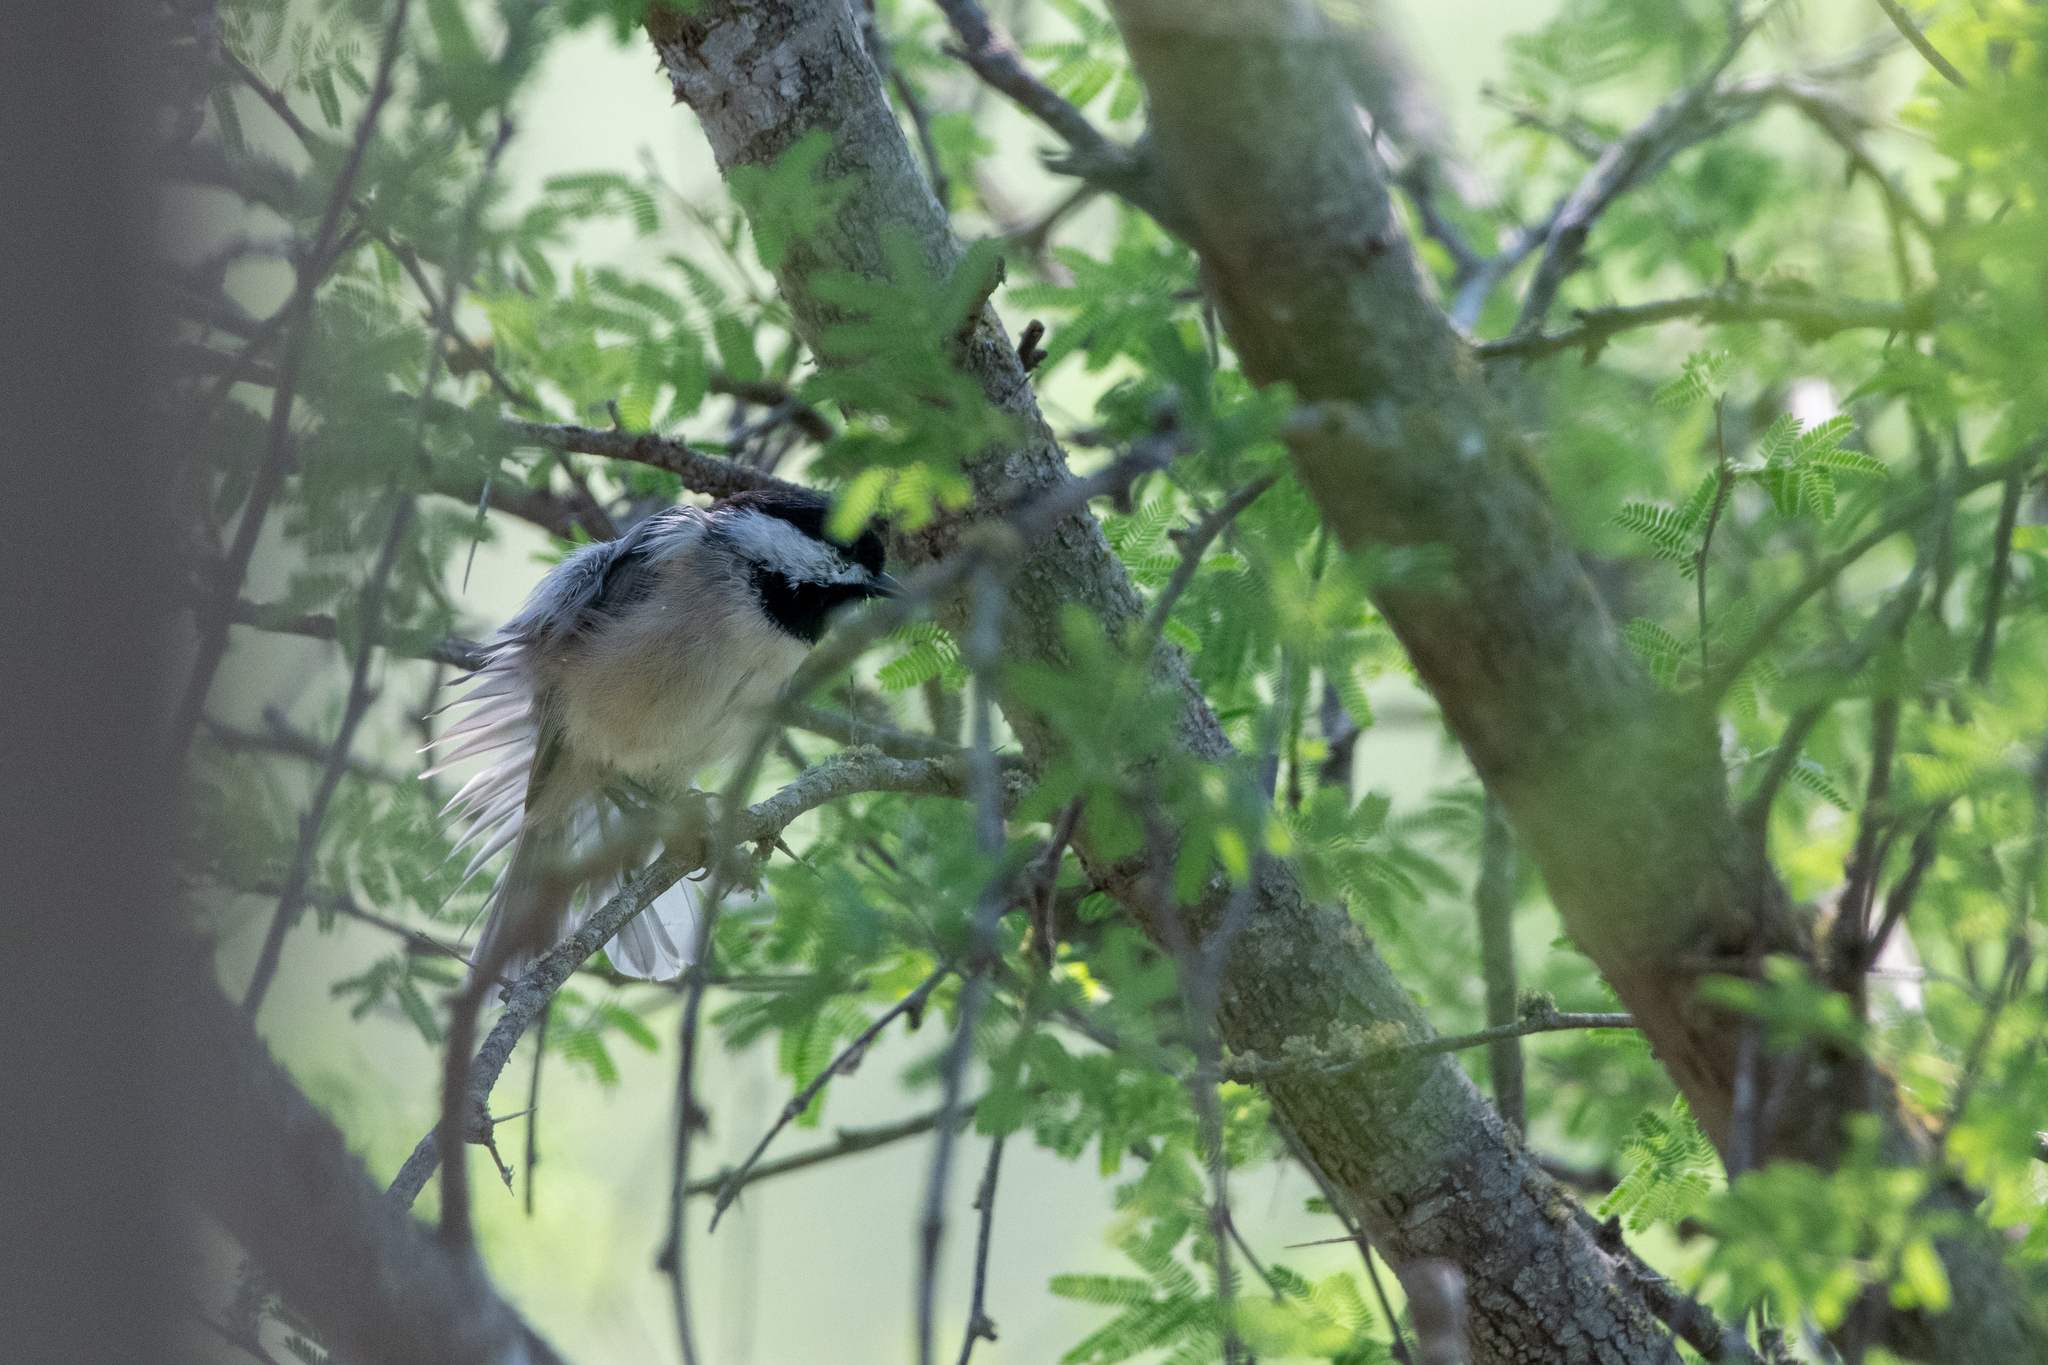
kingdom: Animalia
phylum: Chordata
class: Aves
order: Passeriformes
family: Paridae
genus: Poecile
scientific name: Poecile carolinensis
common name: Carolina chickadee
